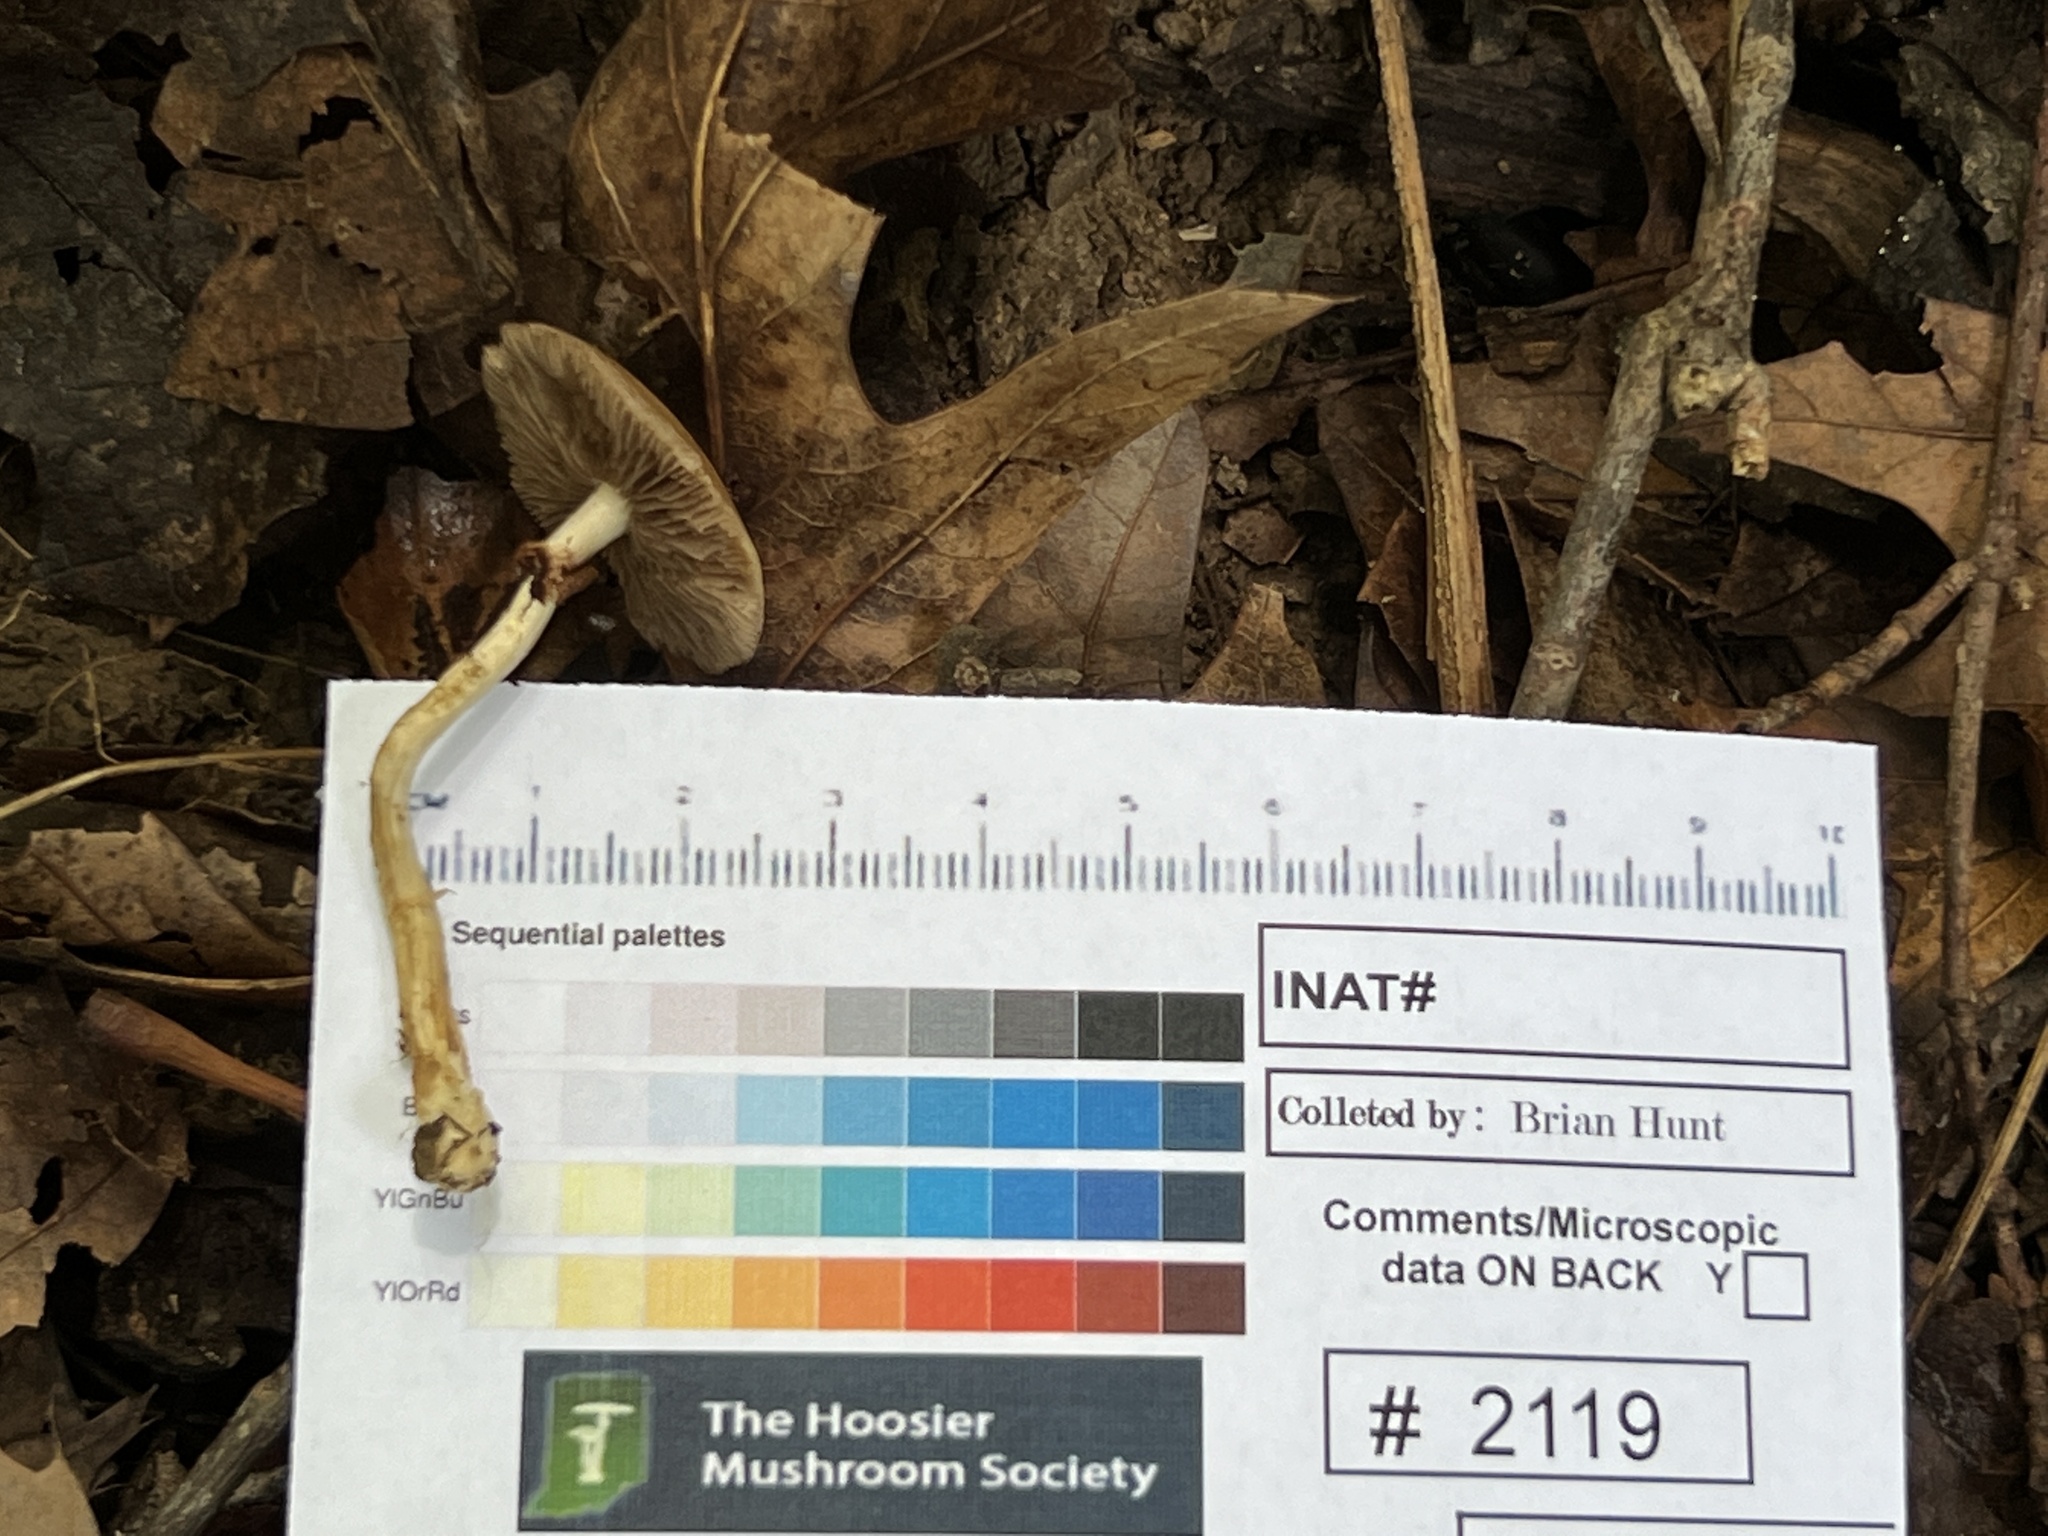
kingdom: Fungi
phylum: Basidiomycota
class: Agaricomycetes
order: Agaricales
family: Strophariaceae
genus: Agrocybe
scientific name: Agrocybe acericola
